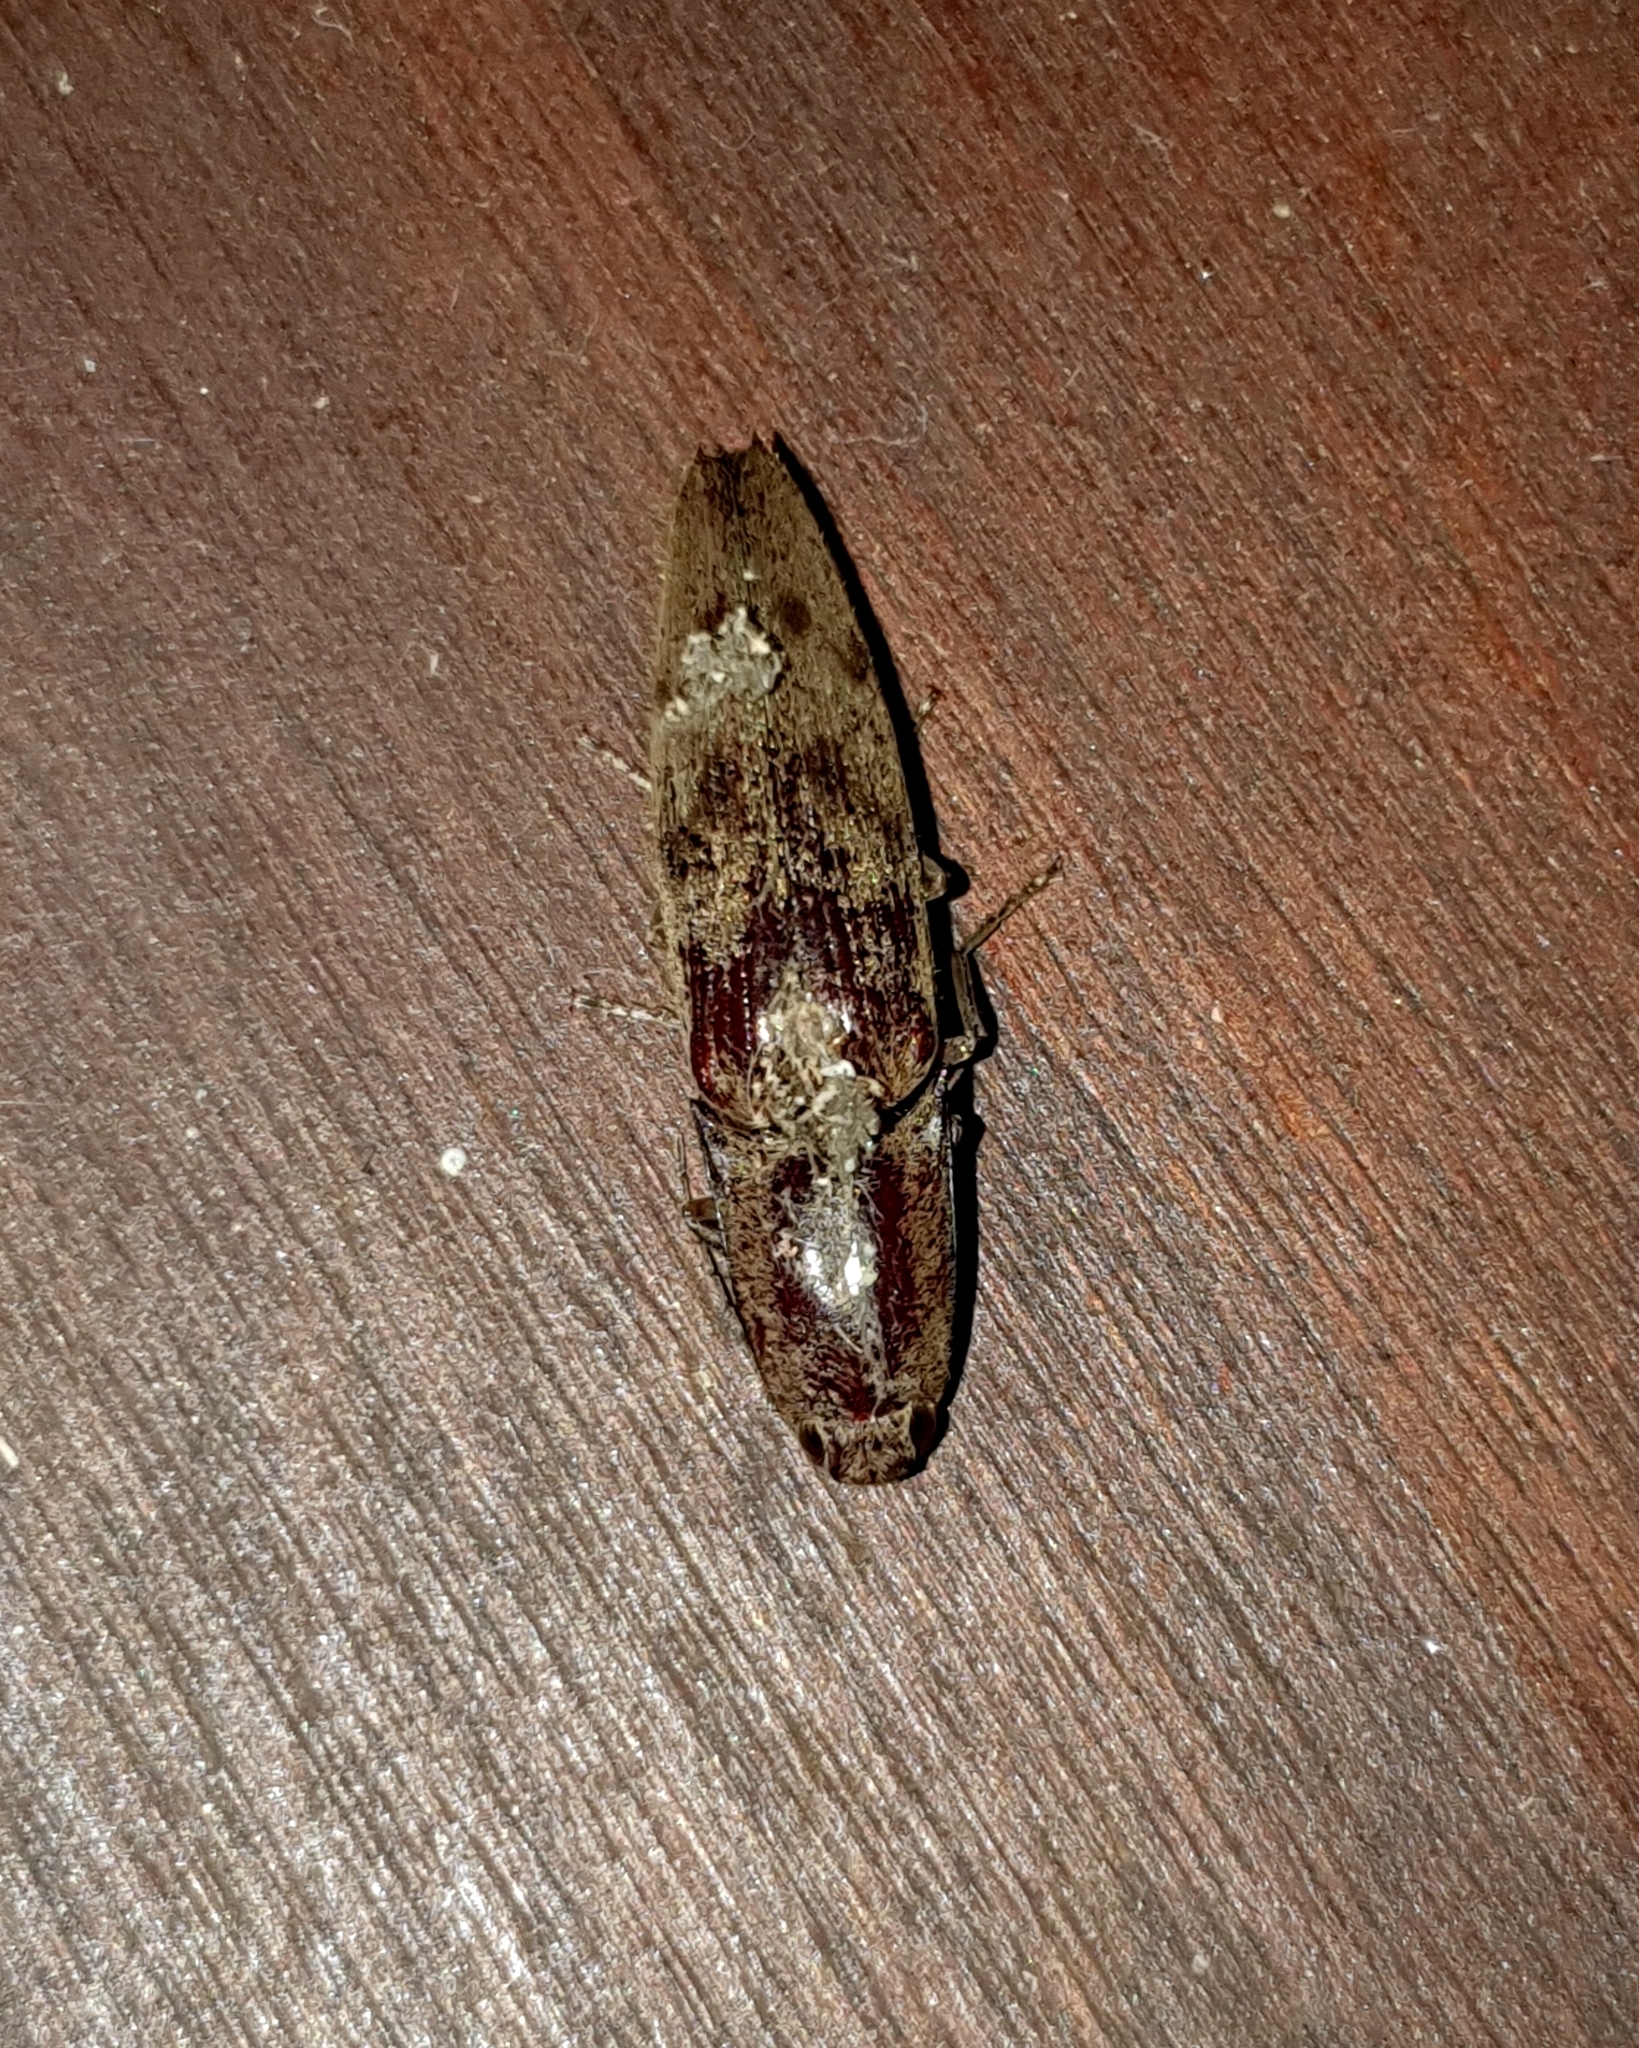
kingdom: Animalia
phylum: Arthropoda
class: Insecta
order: Coleoptera
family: Elateridae
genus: Monocrepidius
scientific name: Monocrepidius
